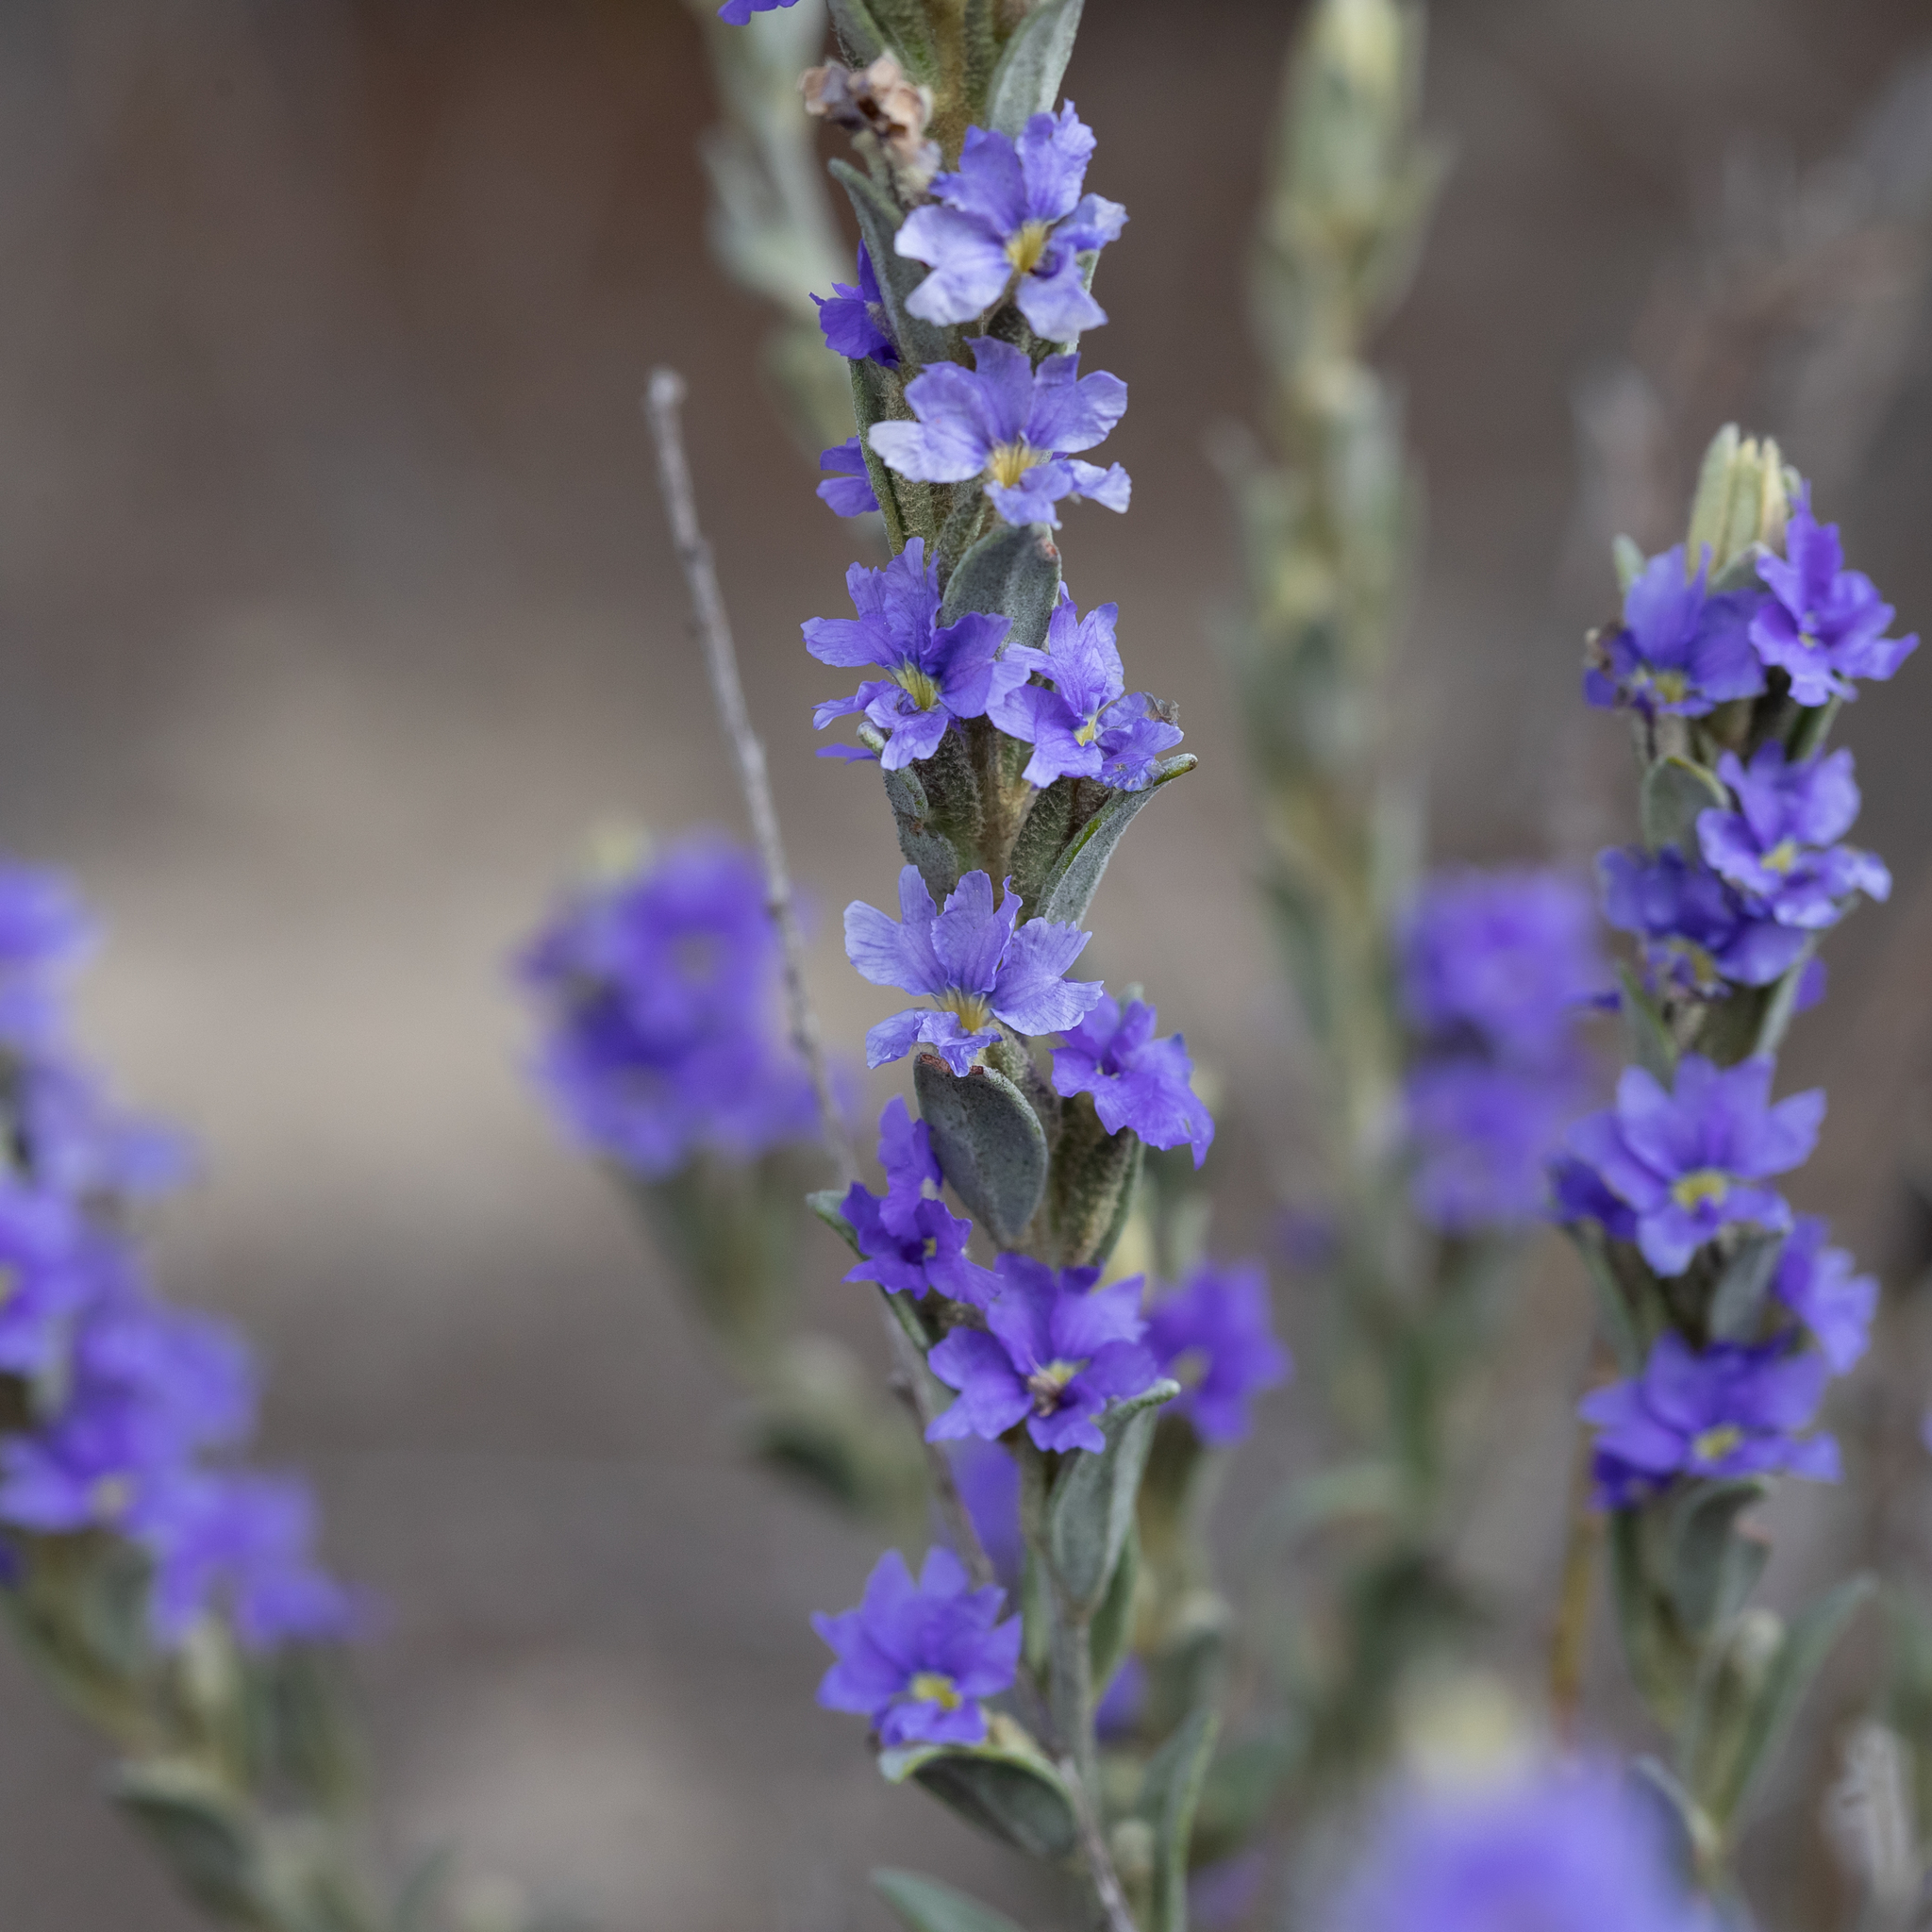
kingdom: Plantae
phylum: Tracheophyta
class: Magnoliopsida
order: Asterales
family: Goodeniaceae
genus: Dampiera
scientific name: Dampiera marifolia
